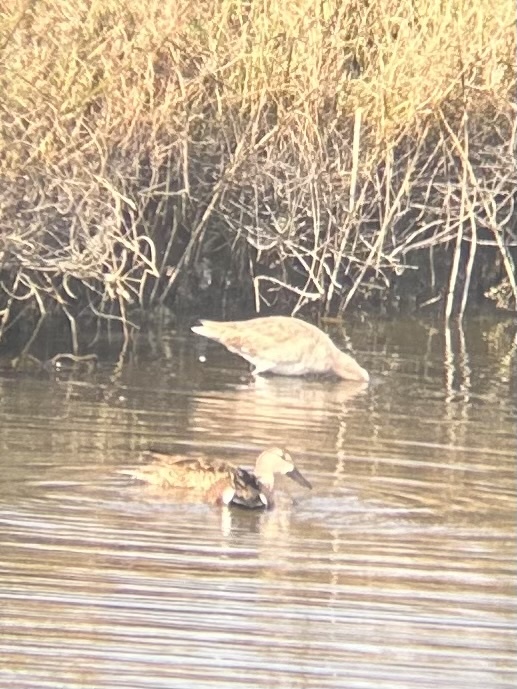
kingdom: Animalia
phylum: Chordata
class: Aves
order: Charadriiformes
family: Scolopacidae
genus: Tringa
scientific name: Tringa semipalmata
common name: Willet
